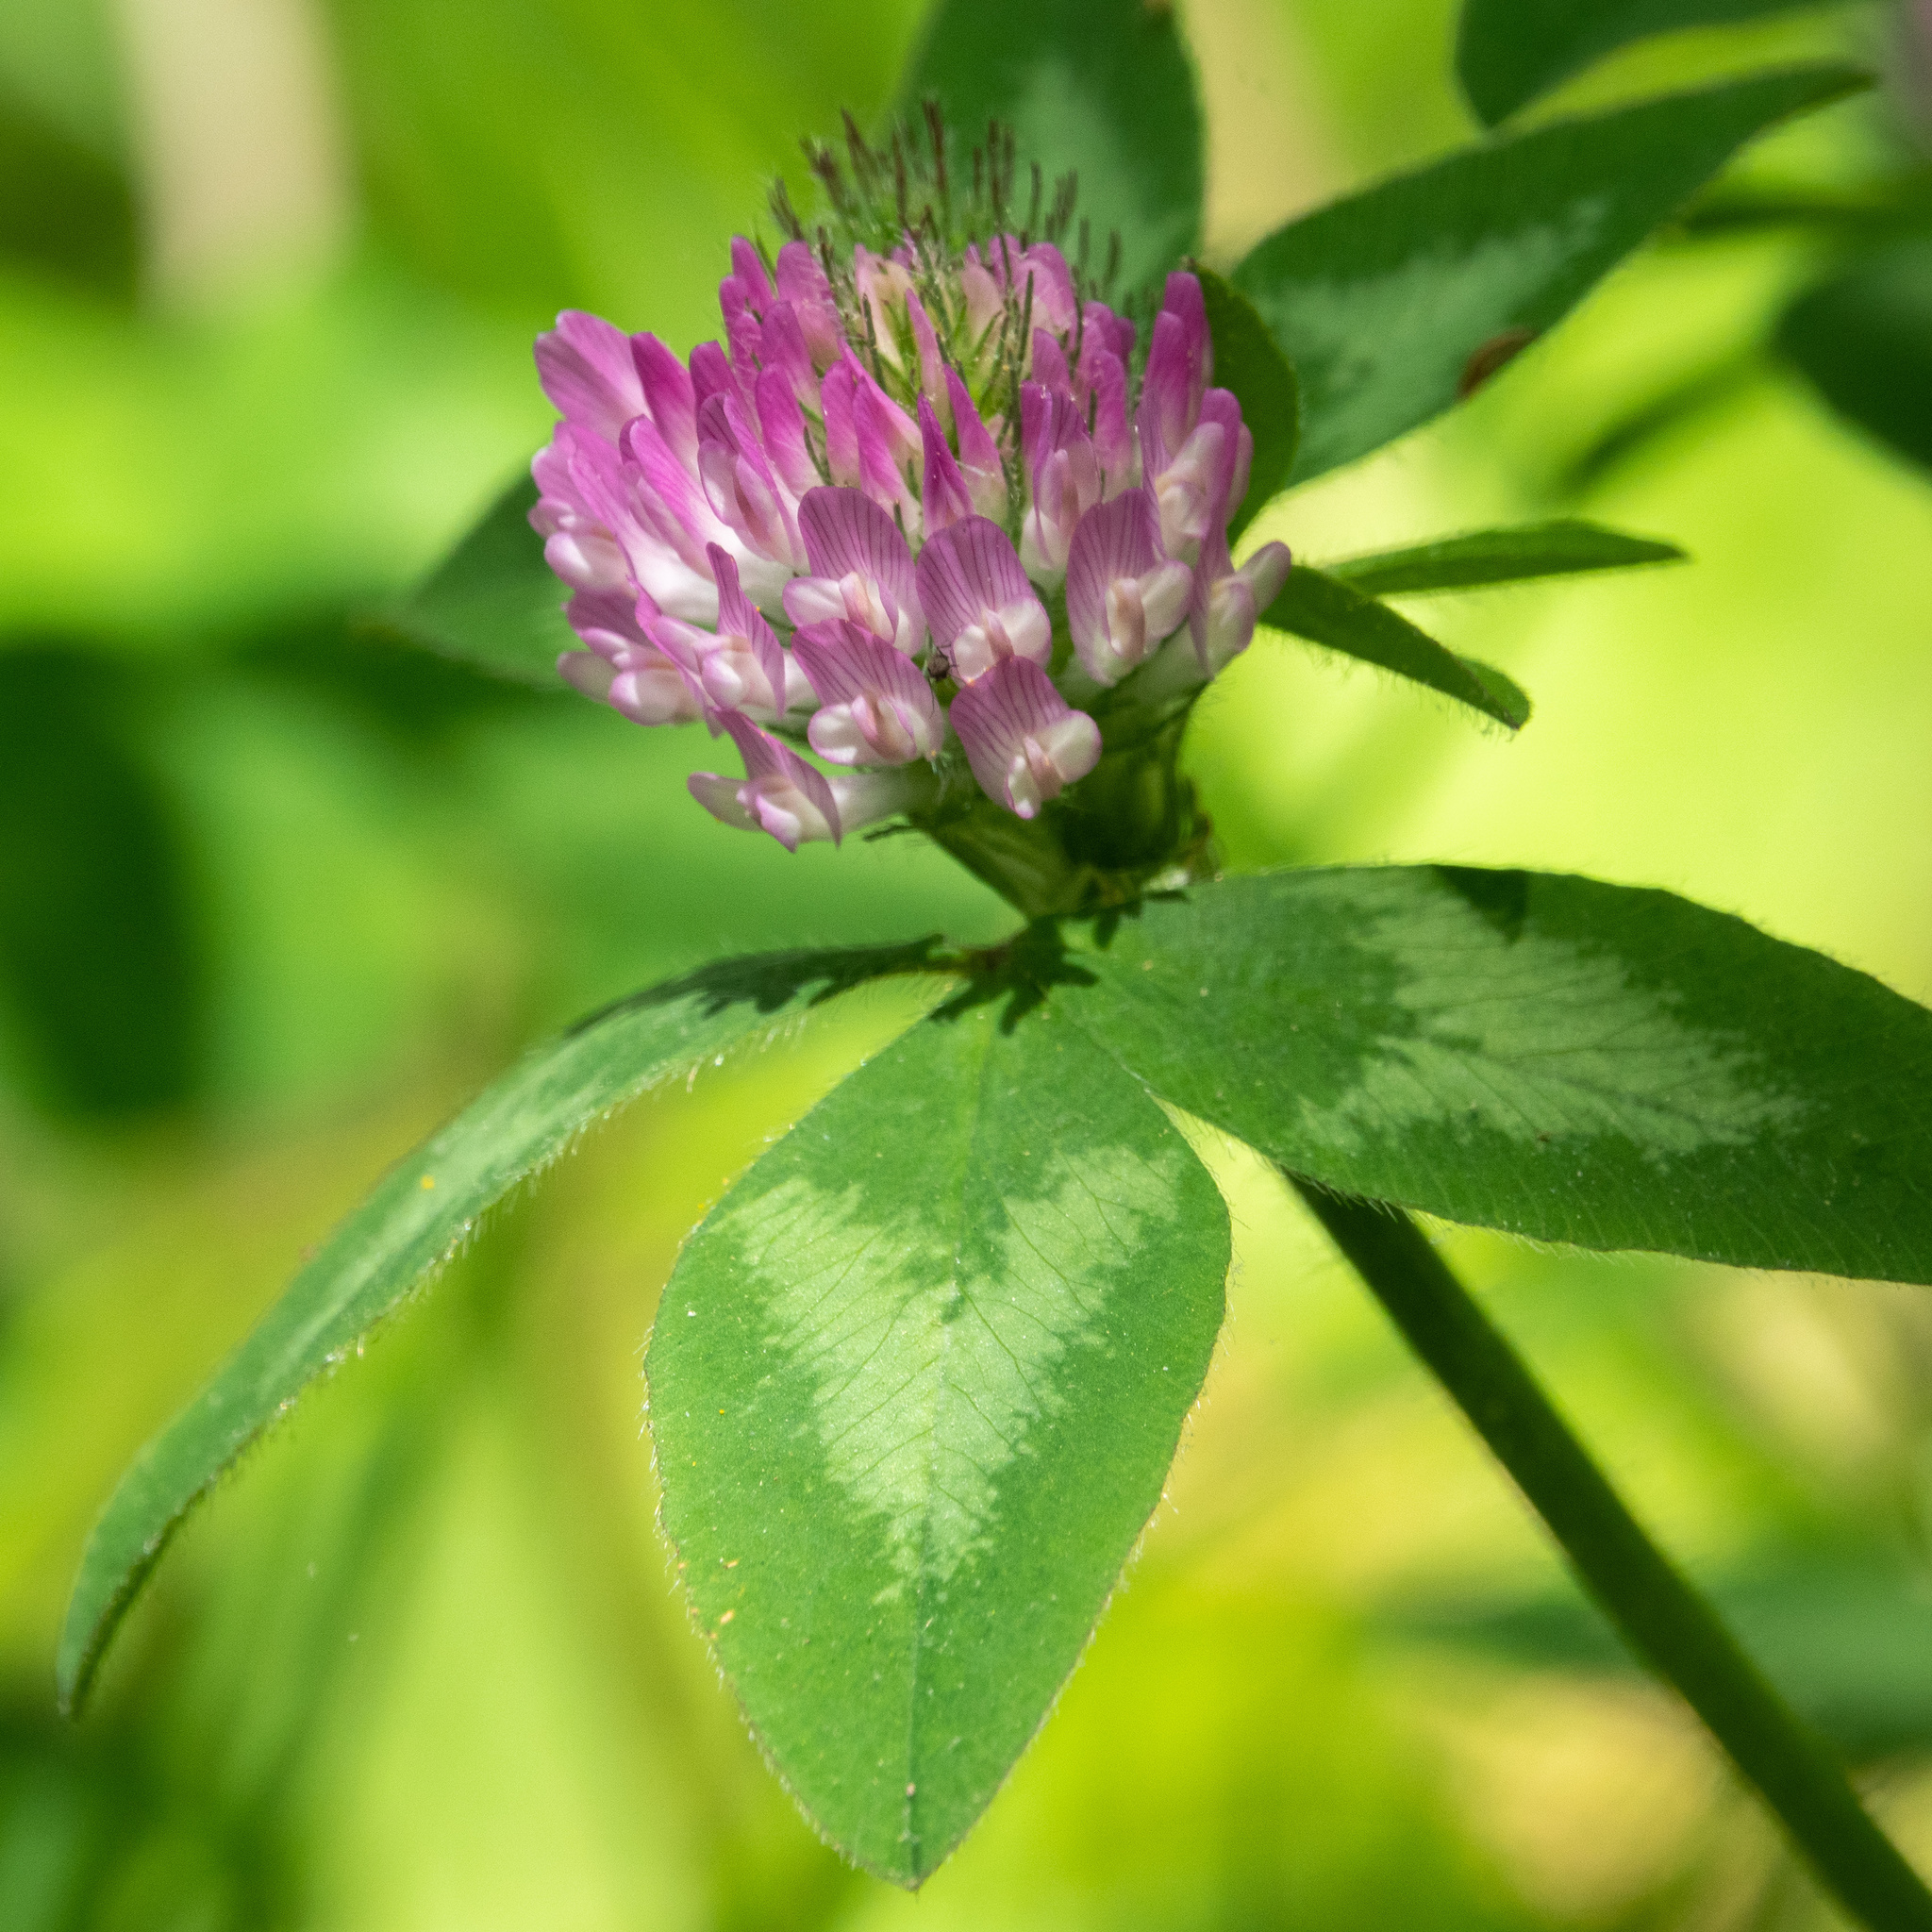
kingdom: Plantae
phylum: Tracheophyta
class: Magnoliopsida
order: Fabales
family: Fabaceae
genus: Trifolium
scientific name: Trifolium pratense
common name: Red clover
